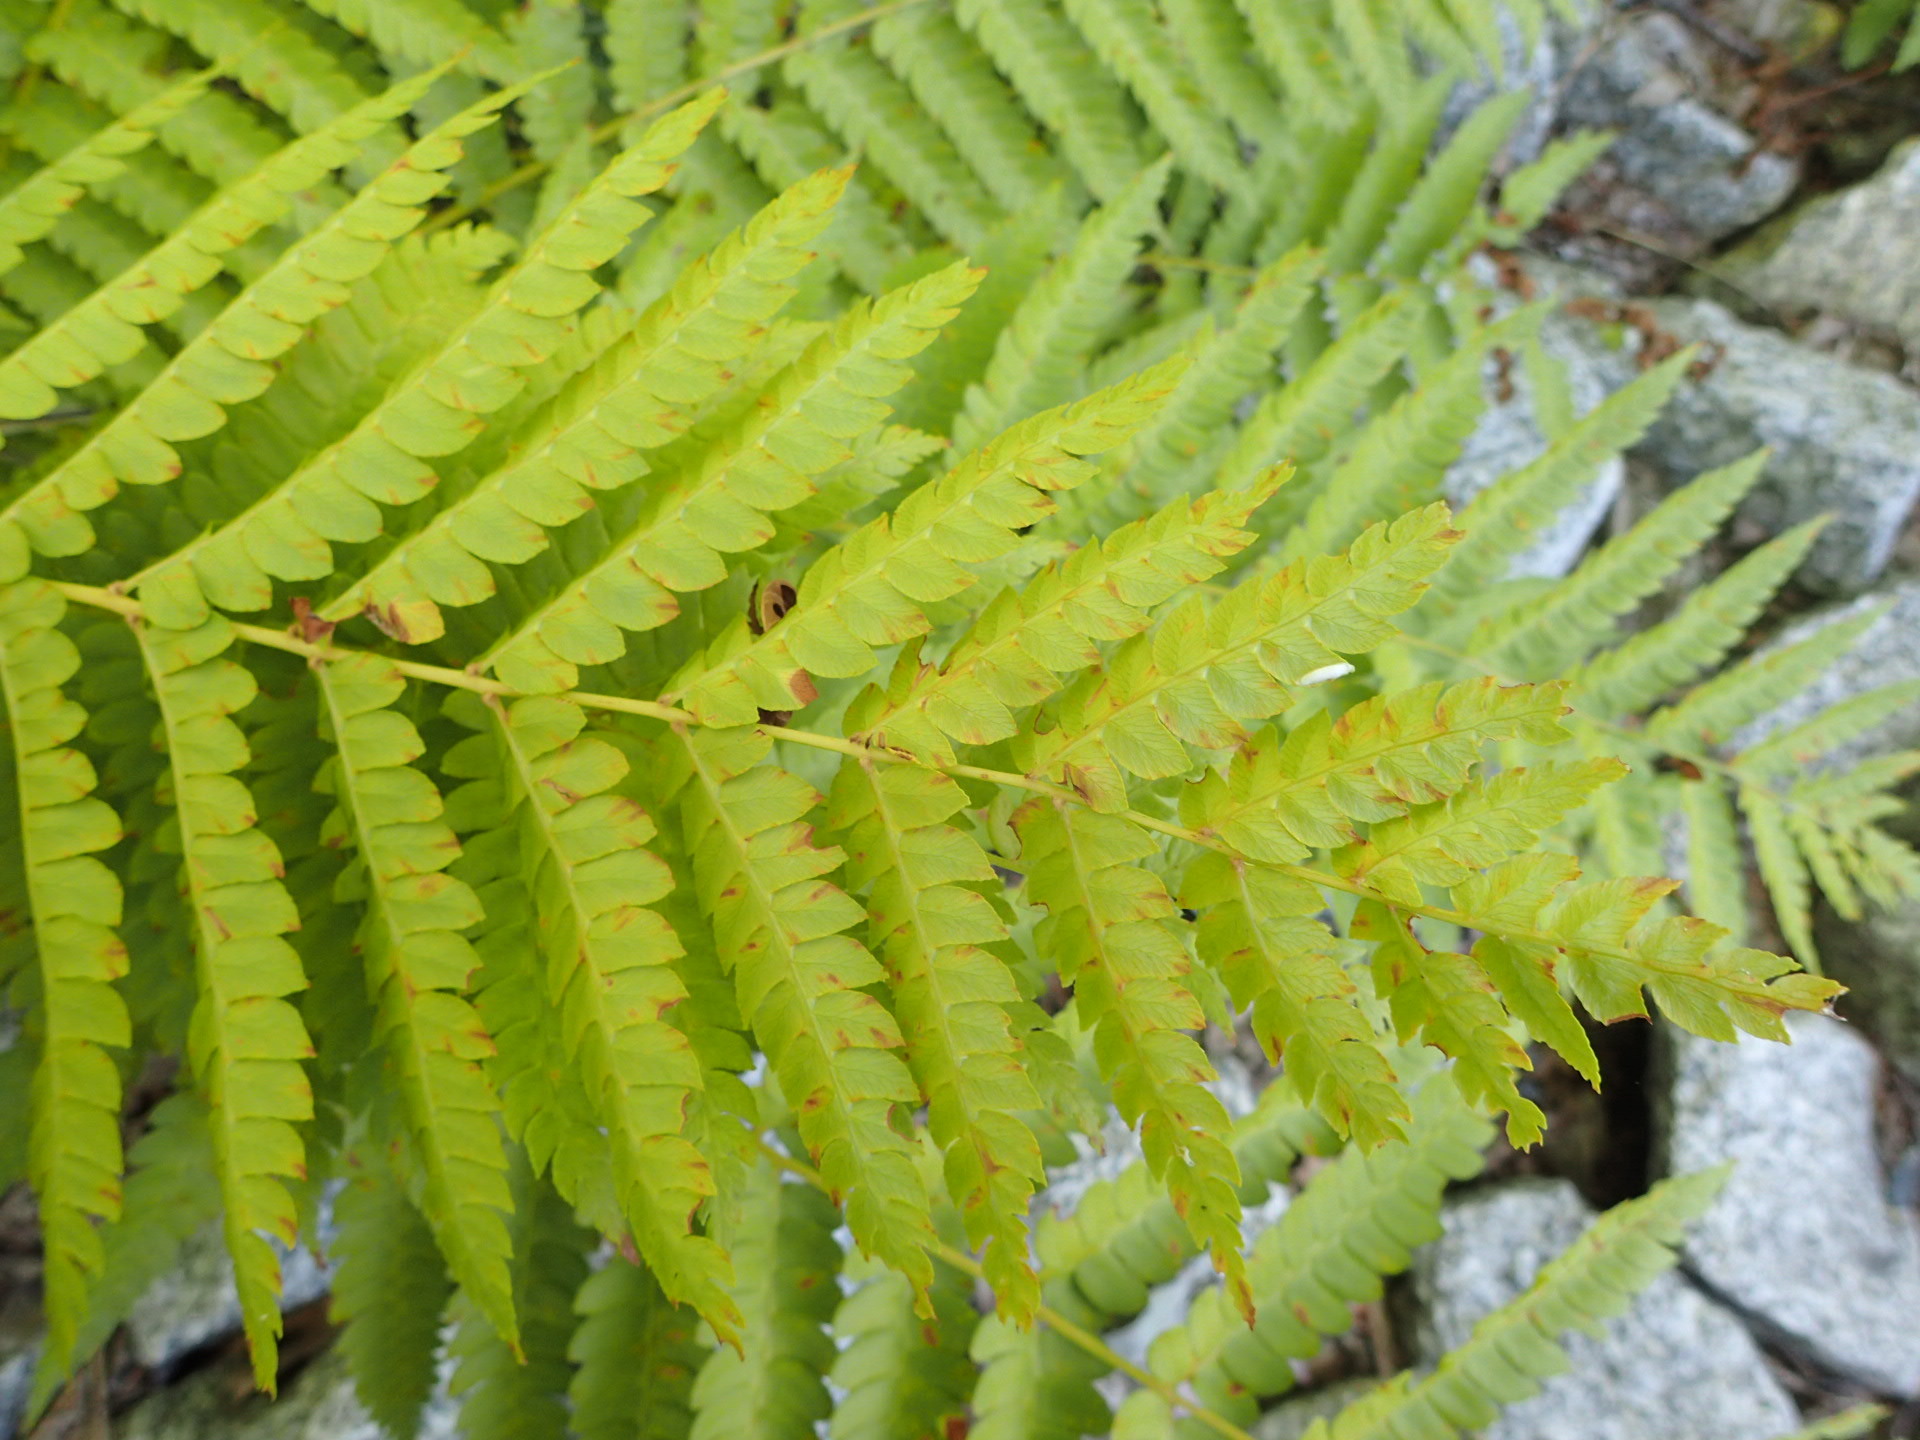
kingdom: Plantae
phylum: Tracheophyta
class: Polypodiopsida
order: Osmundales
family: Osmundaceae
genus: Osmundastrum
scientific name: Osmundastrum cinnamomeum
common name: Cinnamon fern
